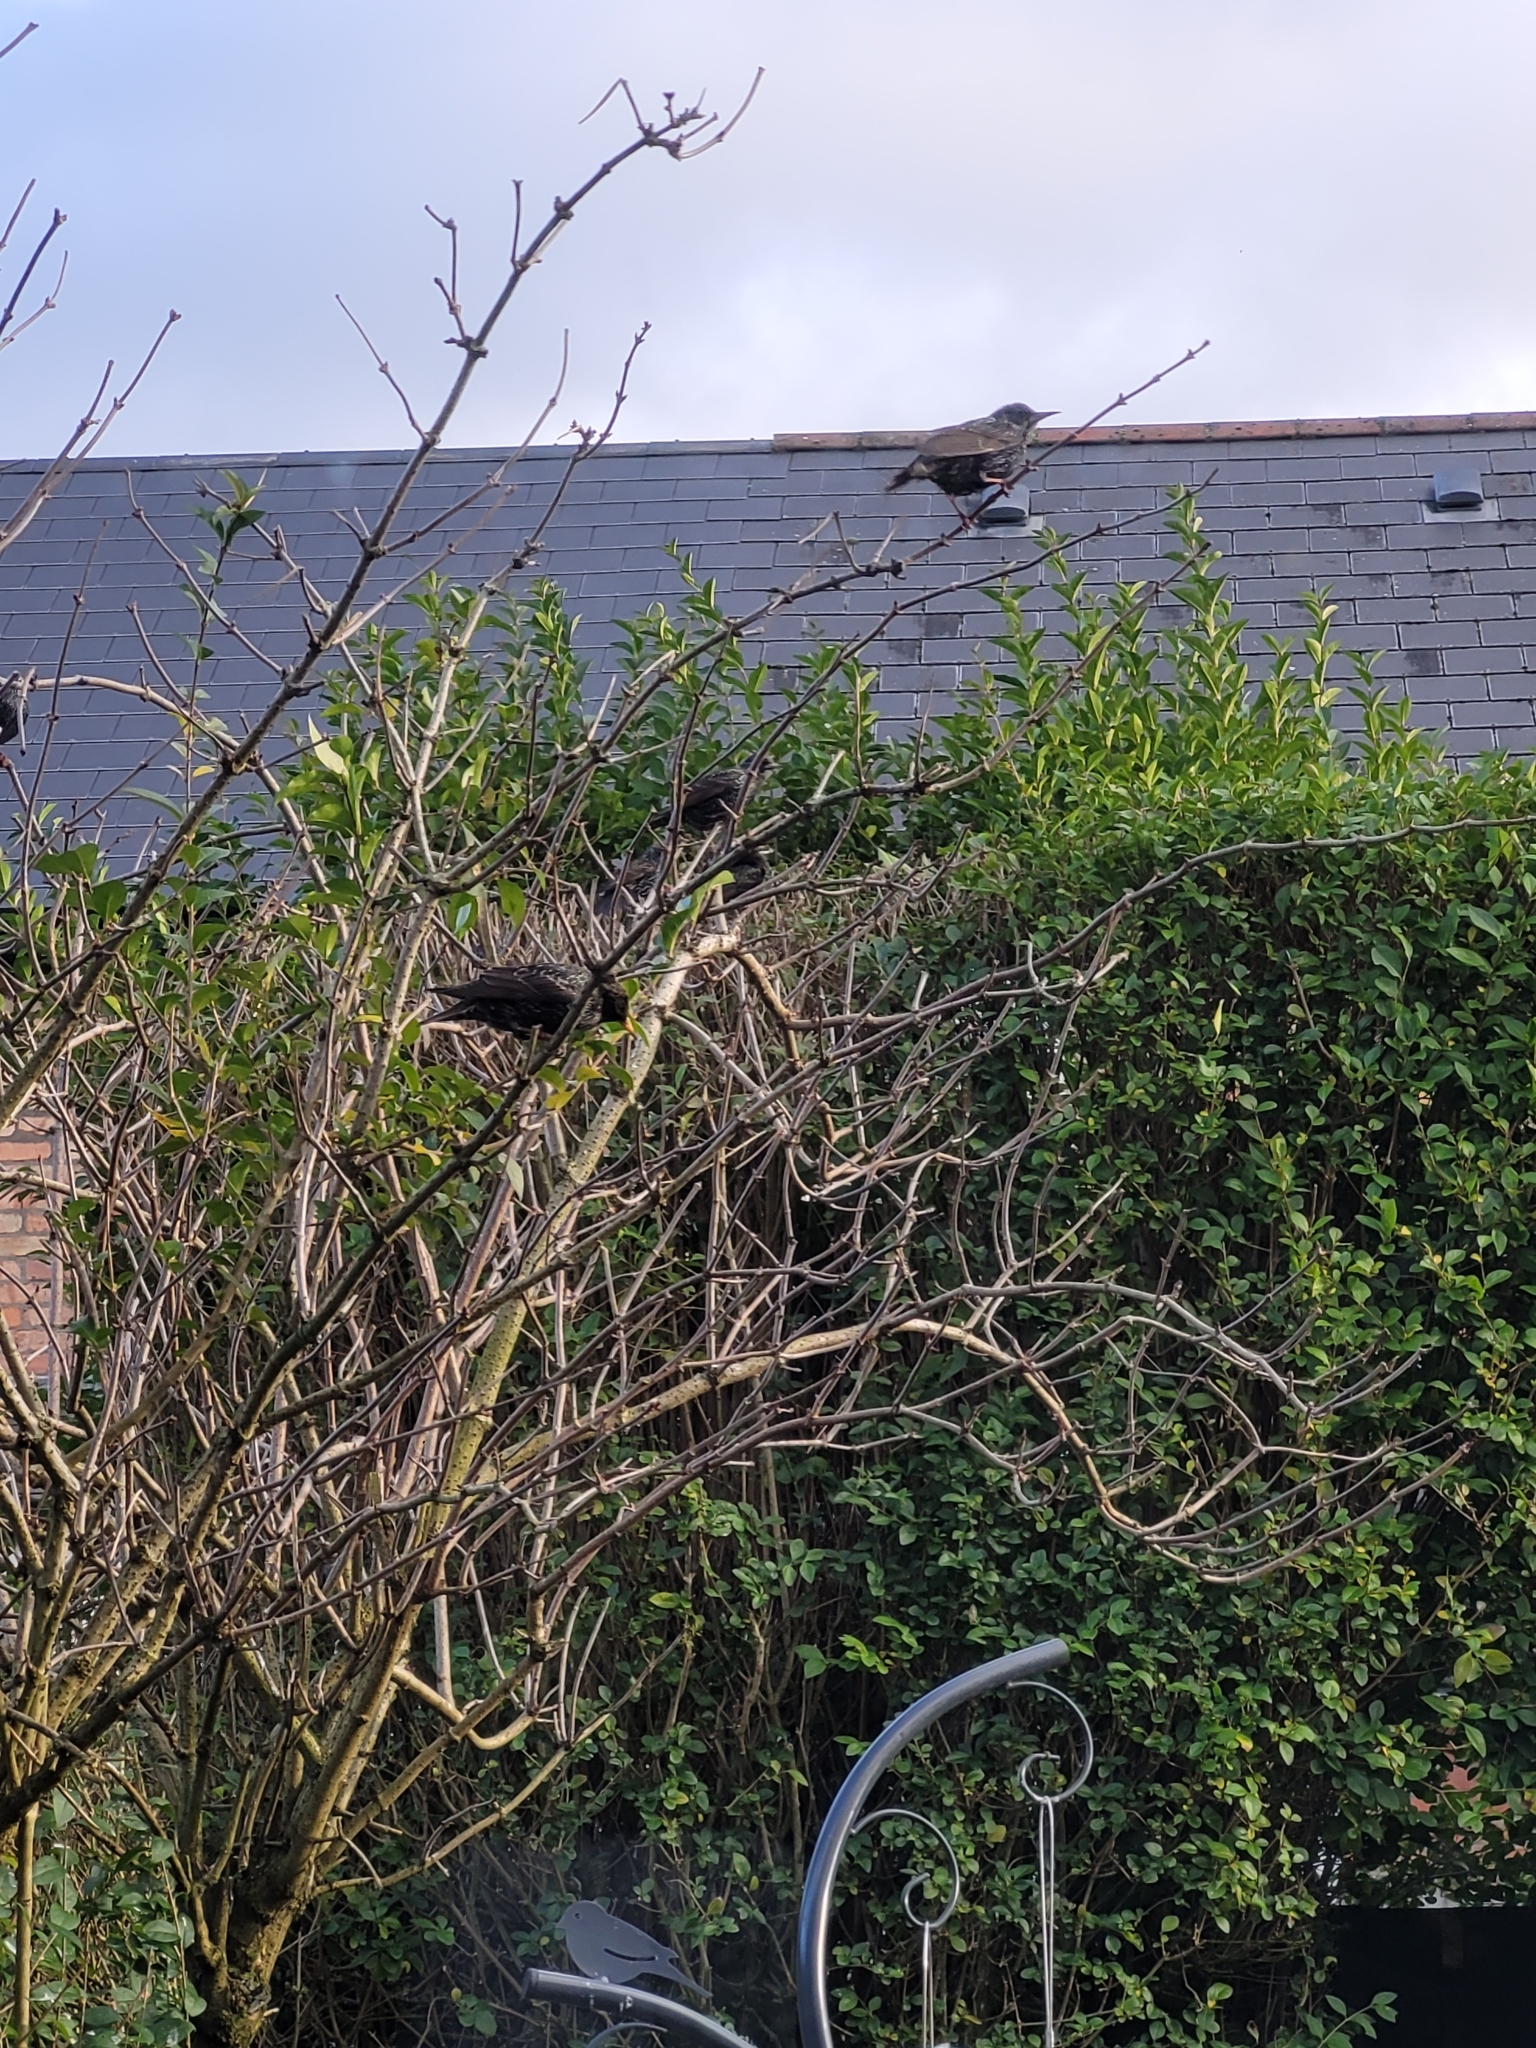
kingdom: Animalia
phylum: Chordata
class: Aves
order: Passeriformes
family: Sturnidae
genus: Sturnus
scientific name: Sturnus vulgaris
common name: Common starling
